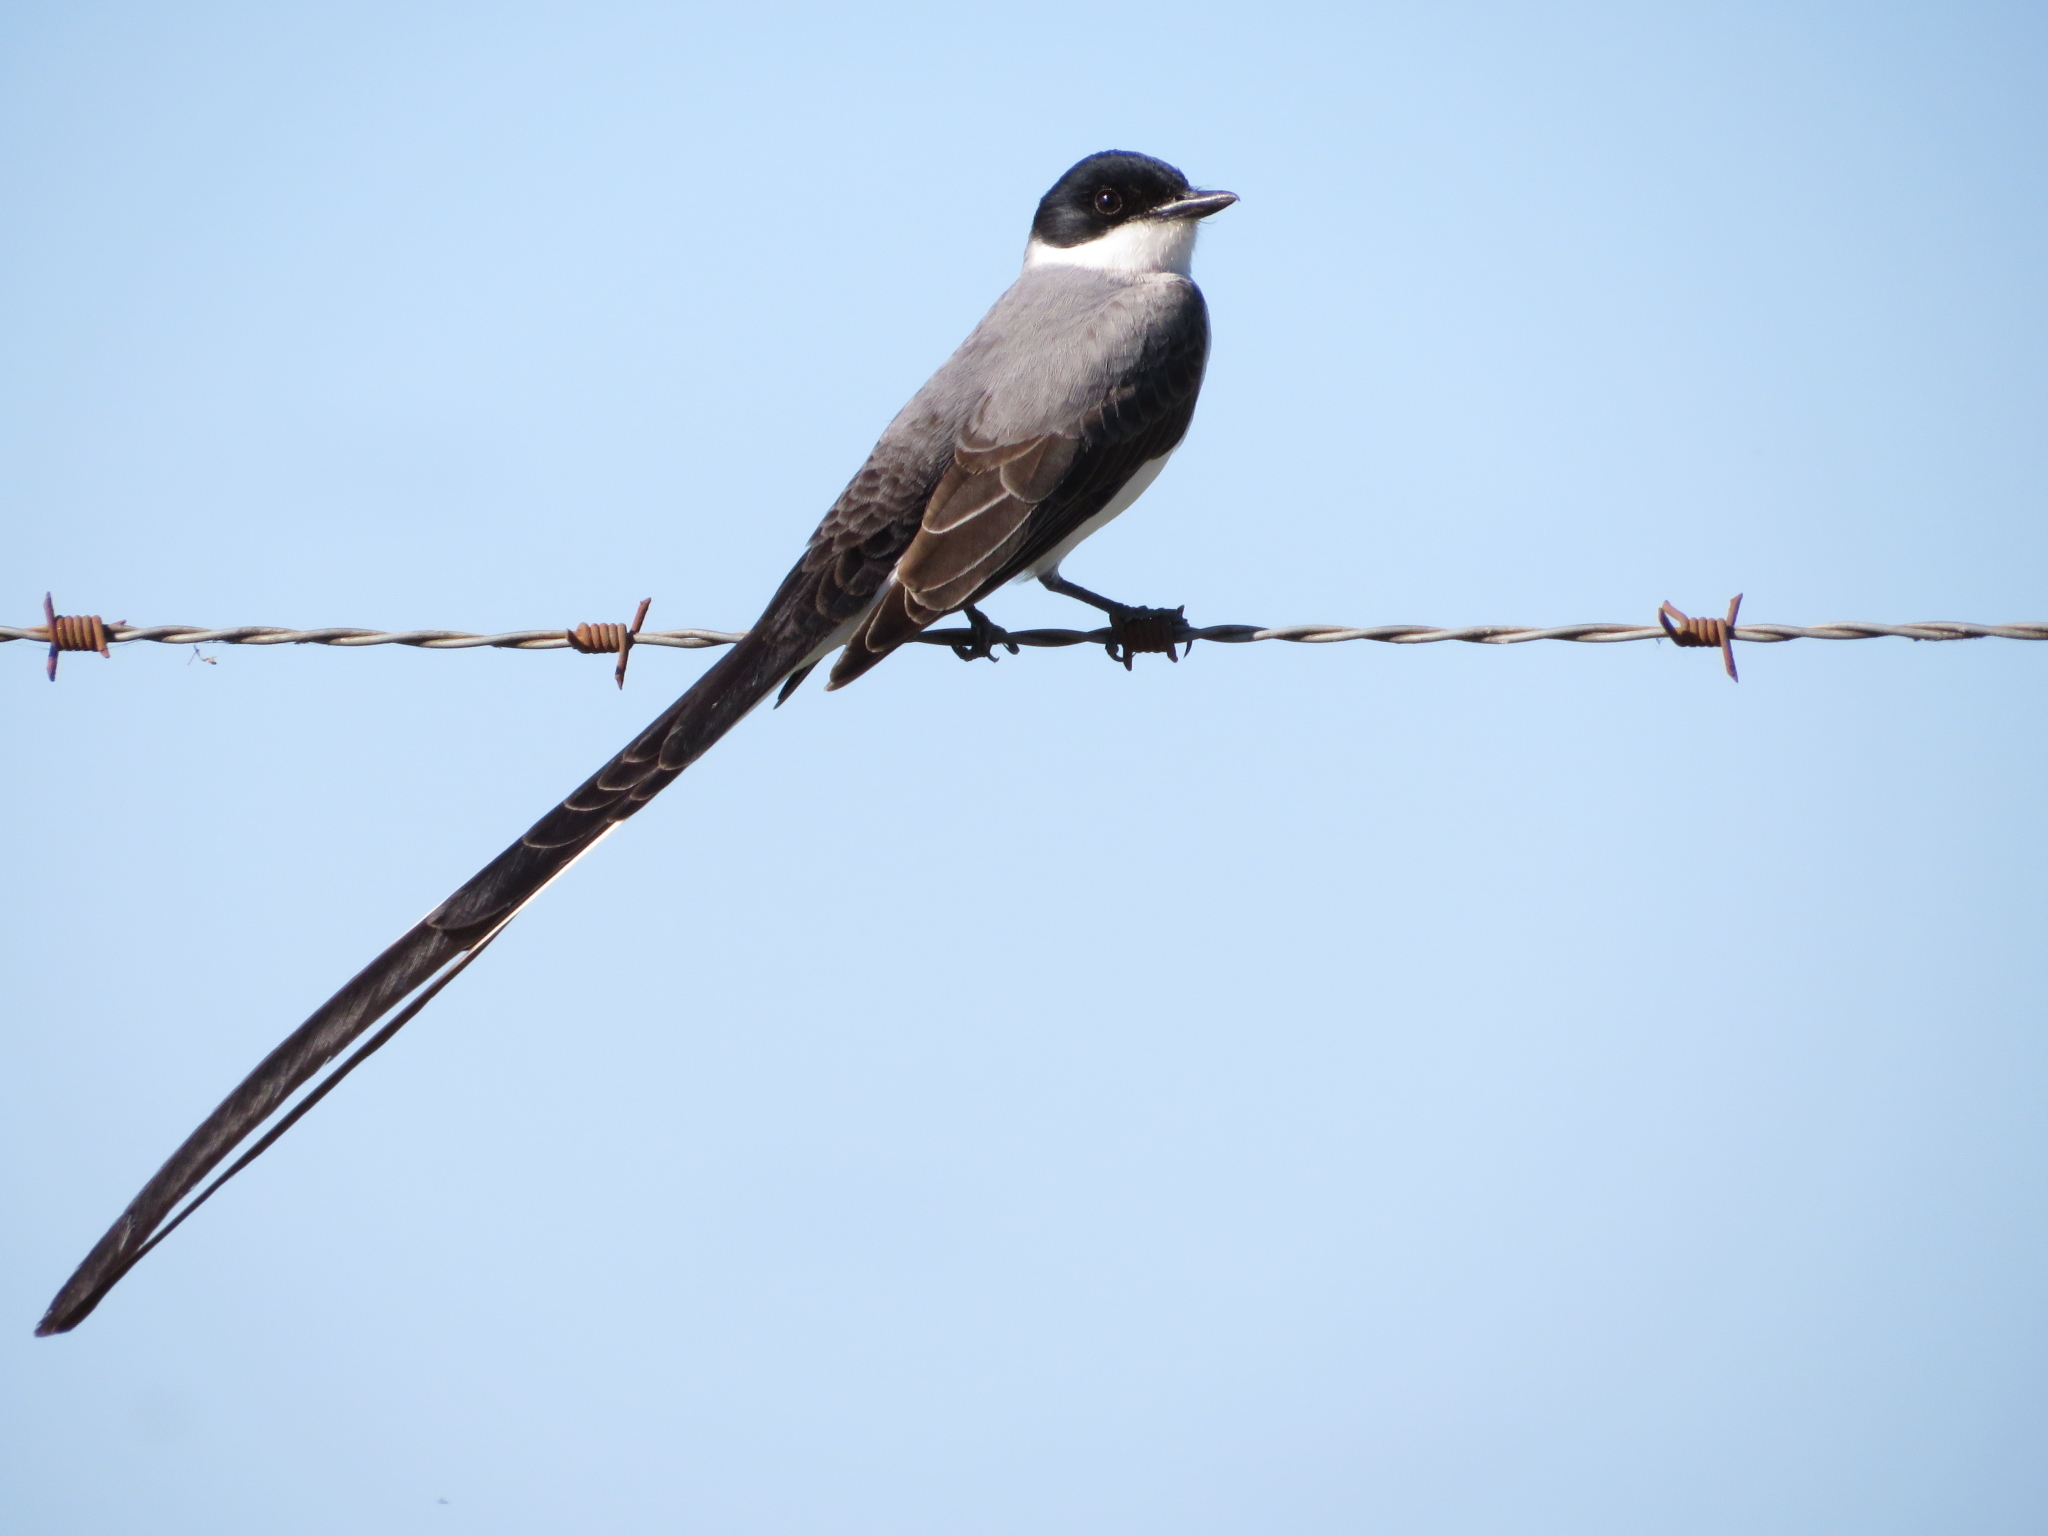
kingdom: Animalia
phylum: Chordata
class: Aves
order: Passeriformes
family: Tyrannidae
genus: Tyrannus
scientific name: Tyrannus savana
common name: Fork-tailed flycatcher
